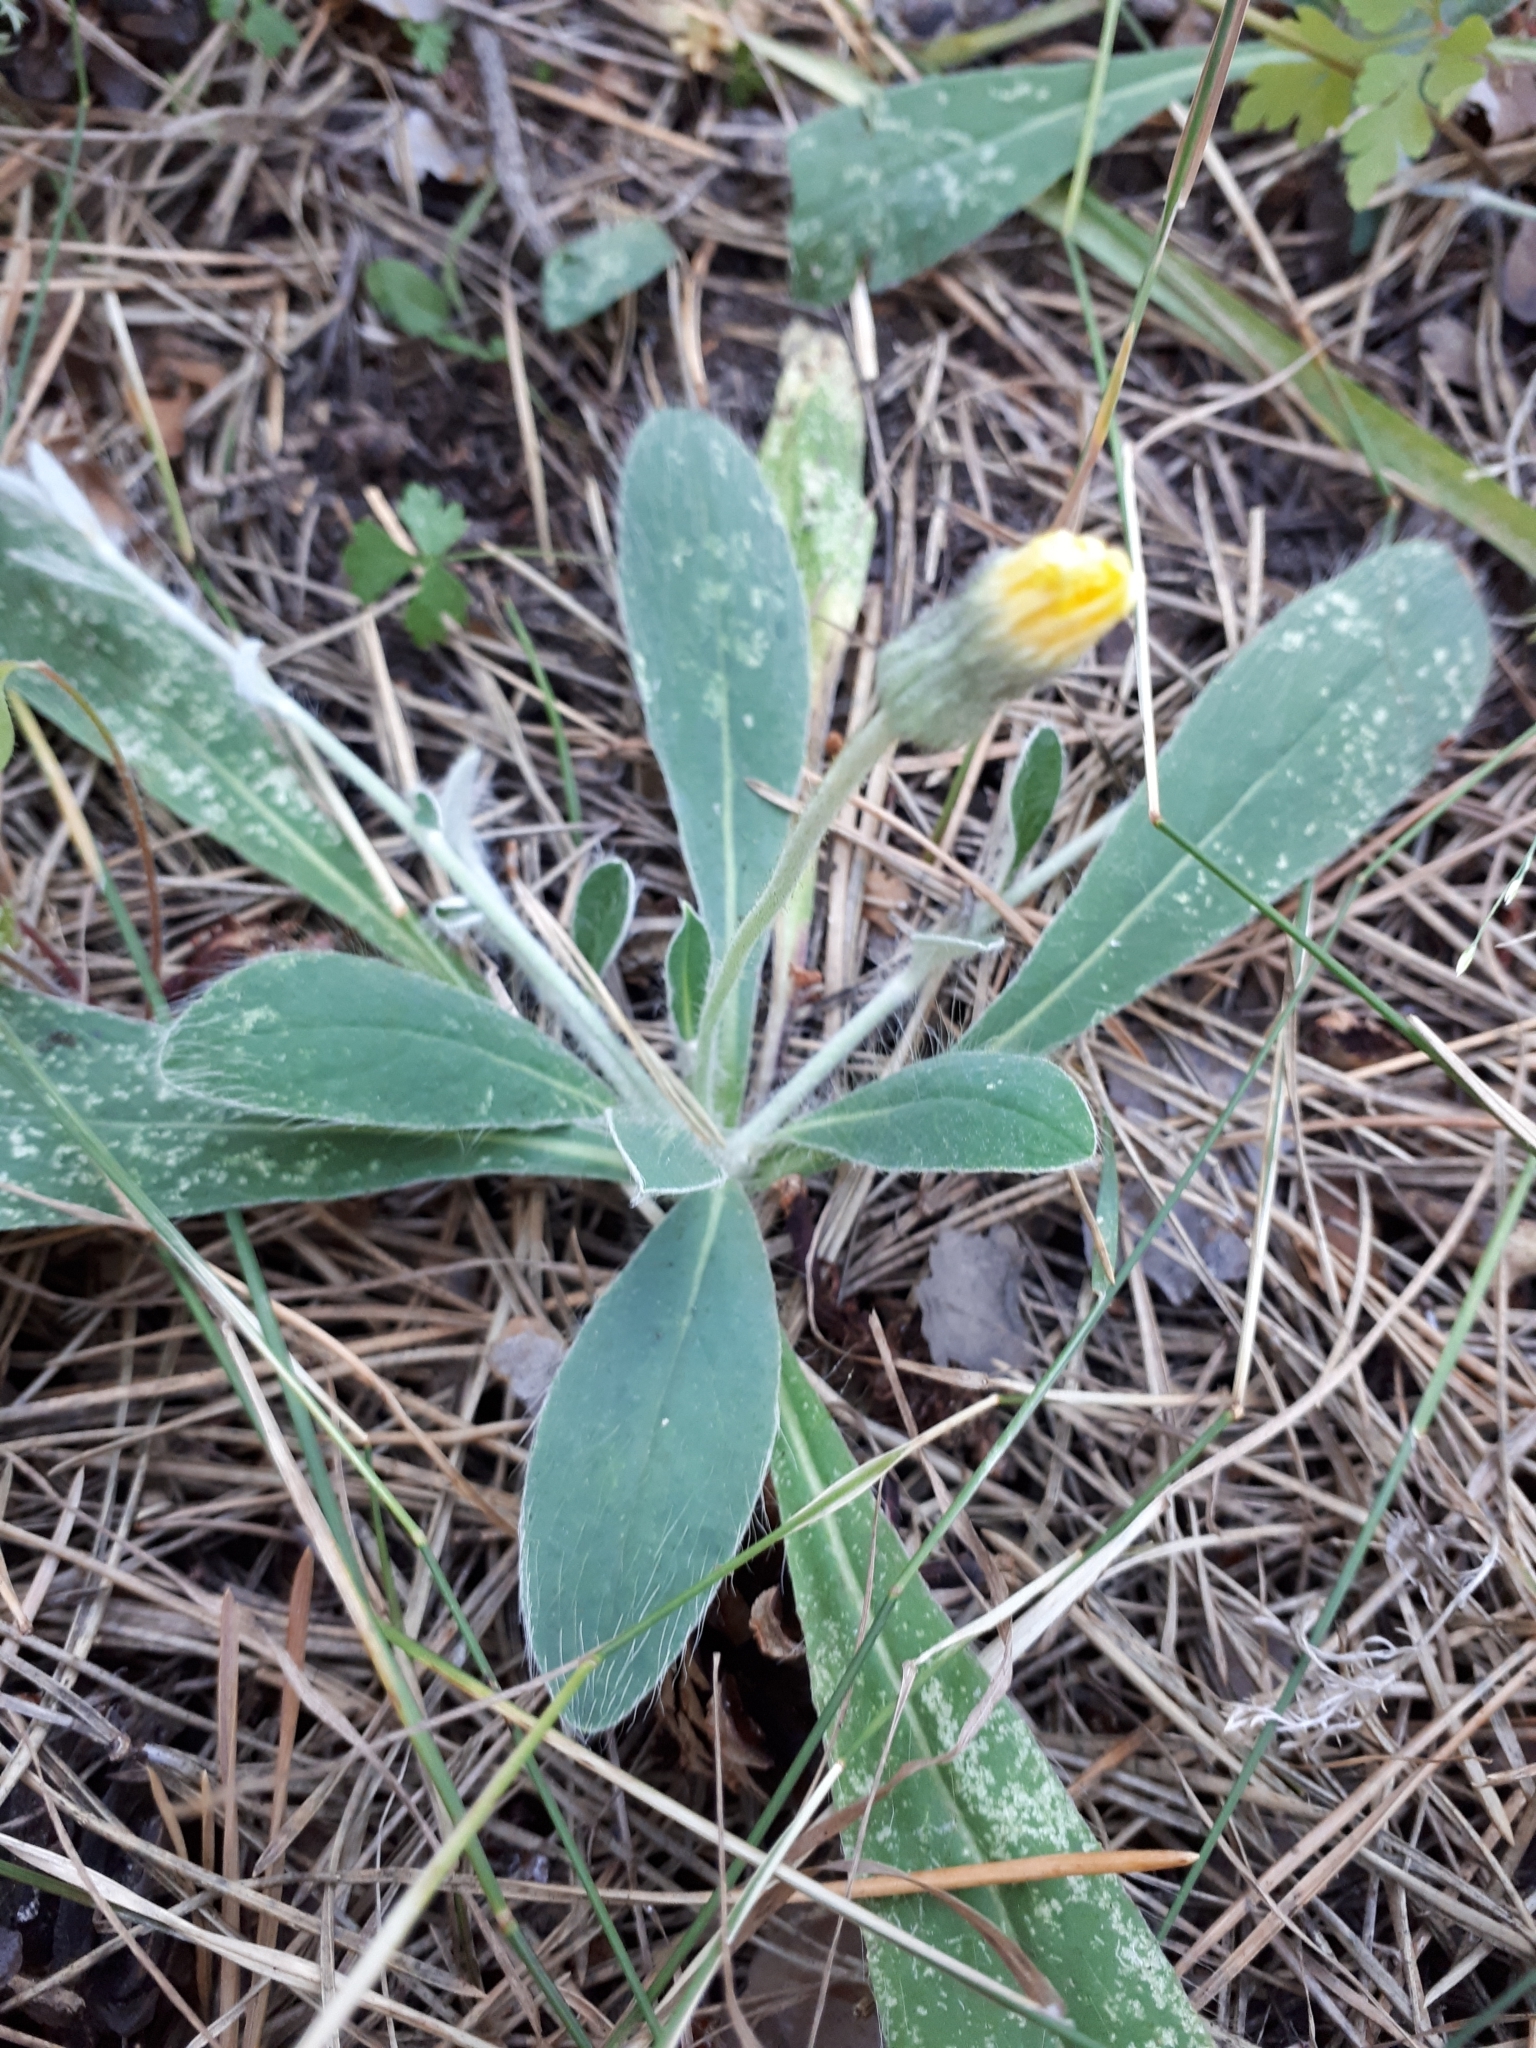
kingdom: Plantae
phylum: Tracheophyta
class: Magnoliopsida
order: Asterales
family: Asteraceae
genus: Pilosella
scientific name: Pilosella officinarum
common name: Mouse-ear hawkweed
